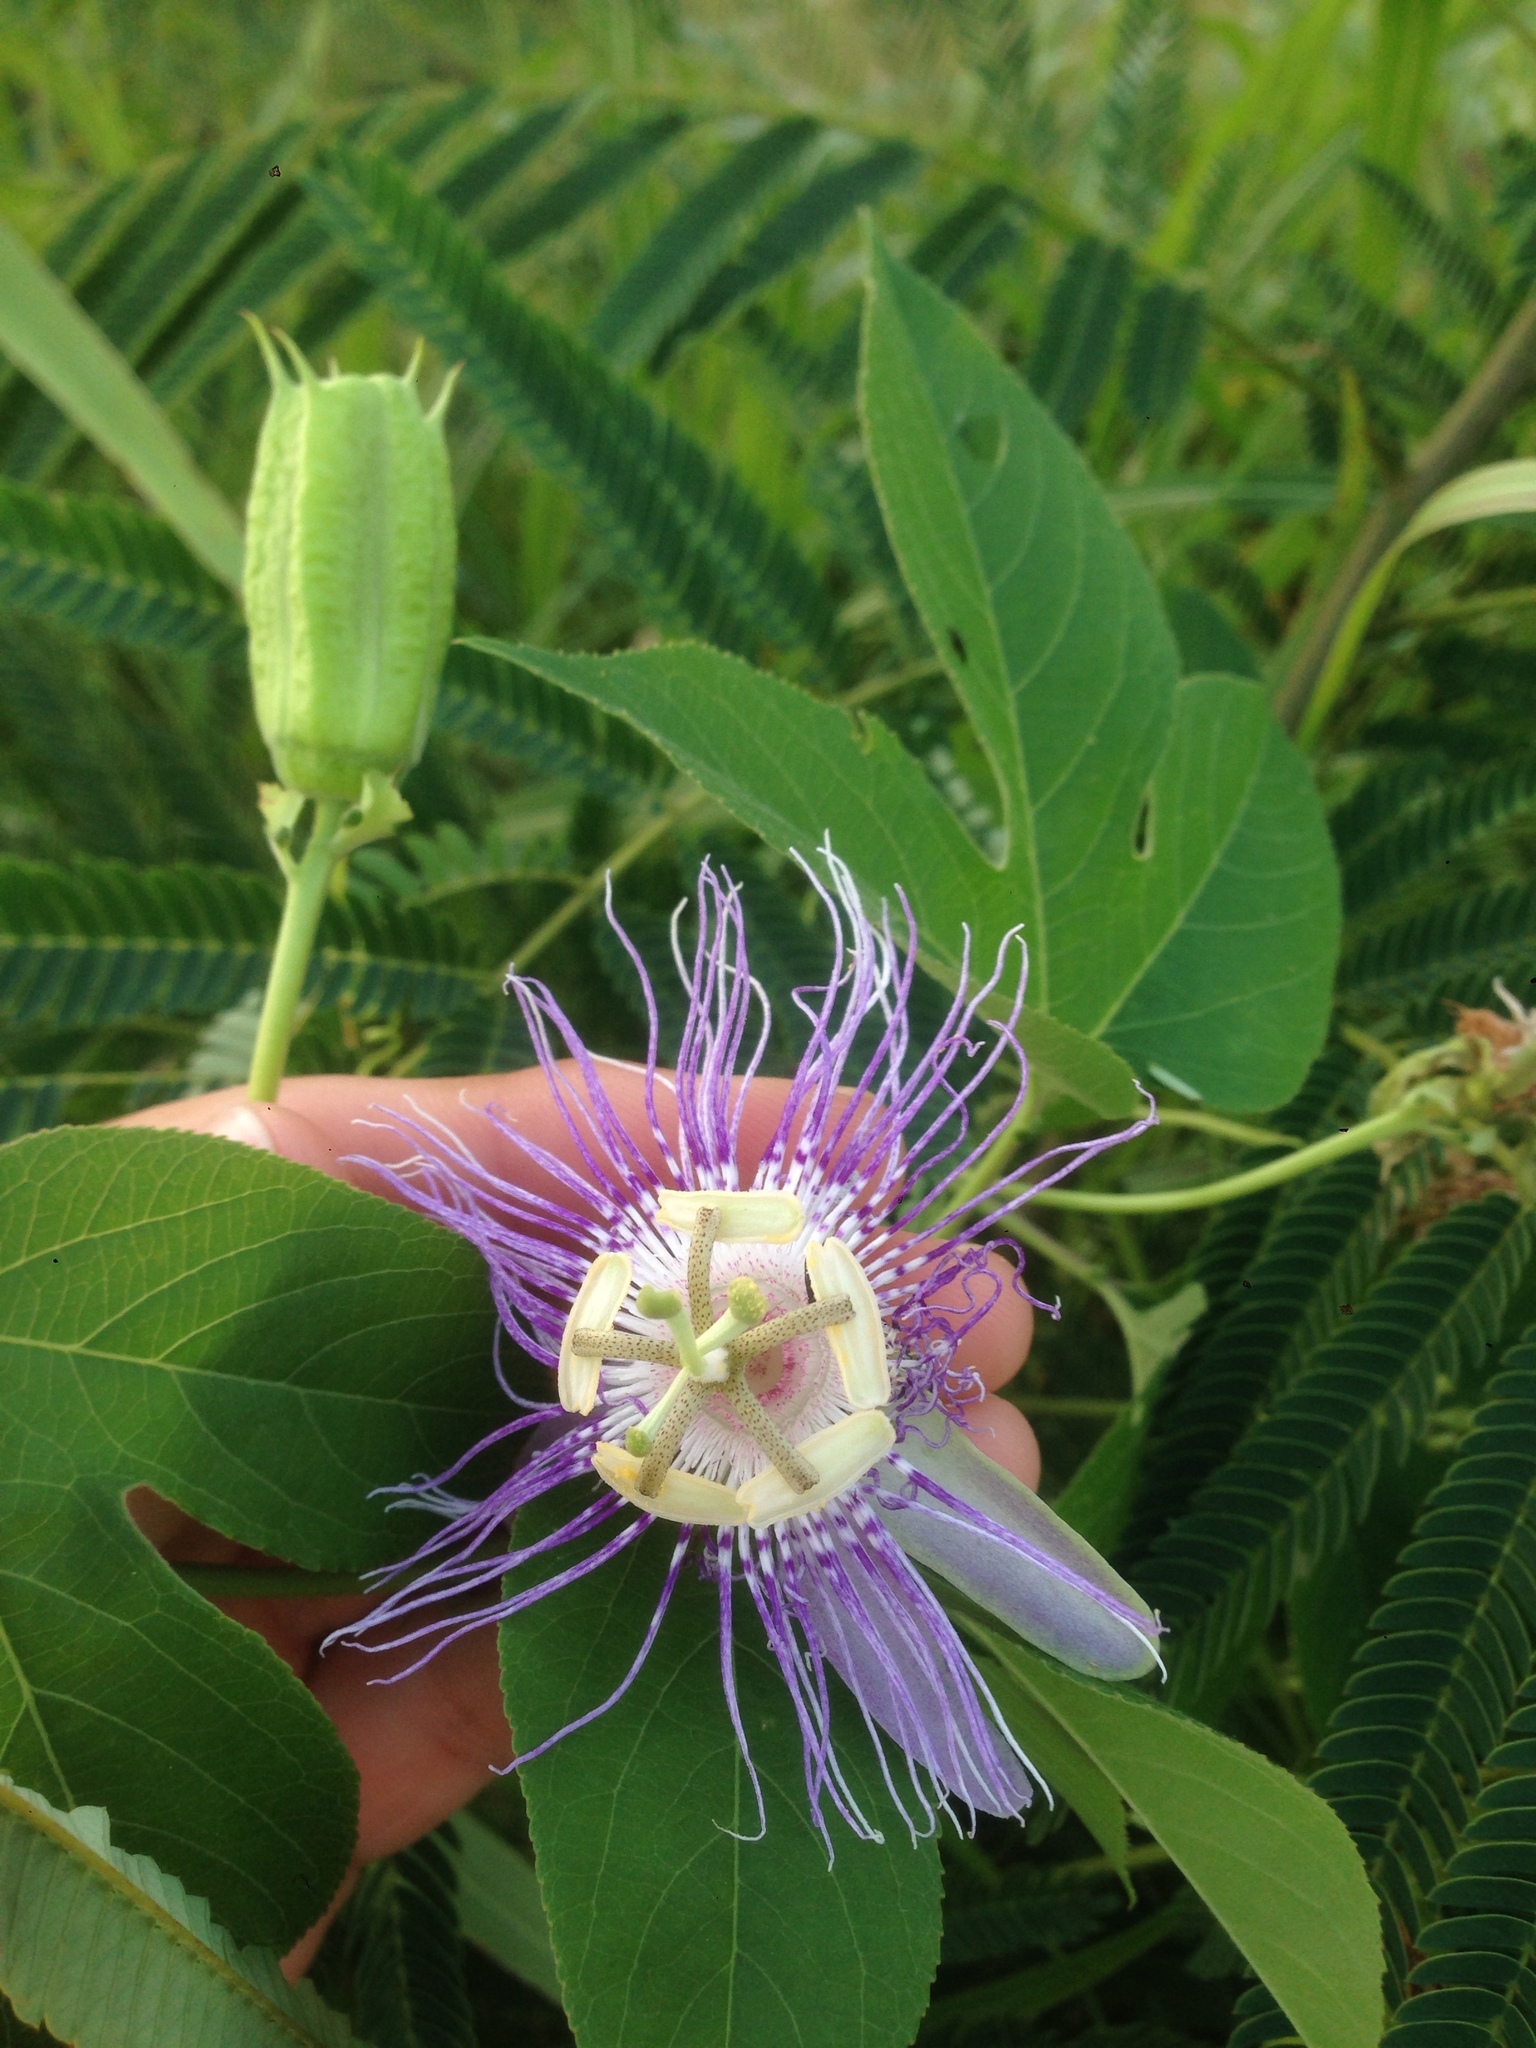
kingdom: Plantae
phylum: Tracheophyta
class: Magnoliopsida
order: Malpighiales
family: Passifloraceae
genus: Passiflora
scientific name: Passiflora incarnata
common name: Apricot-vine
